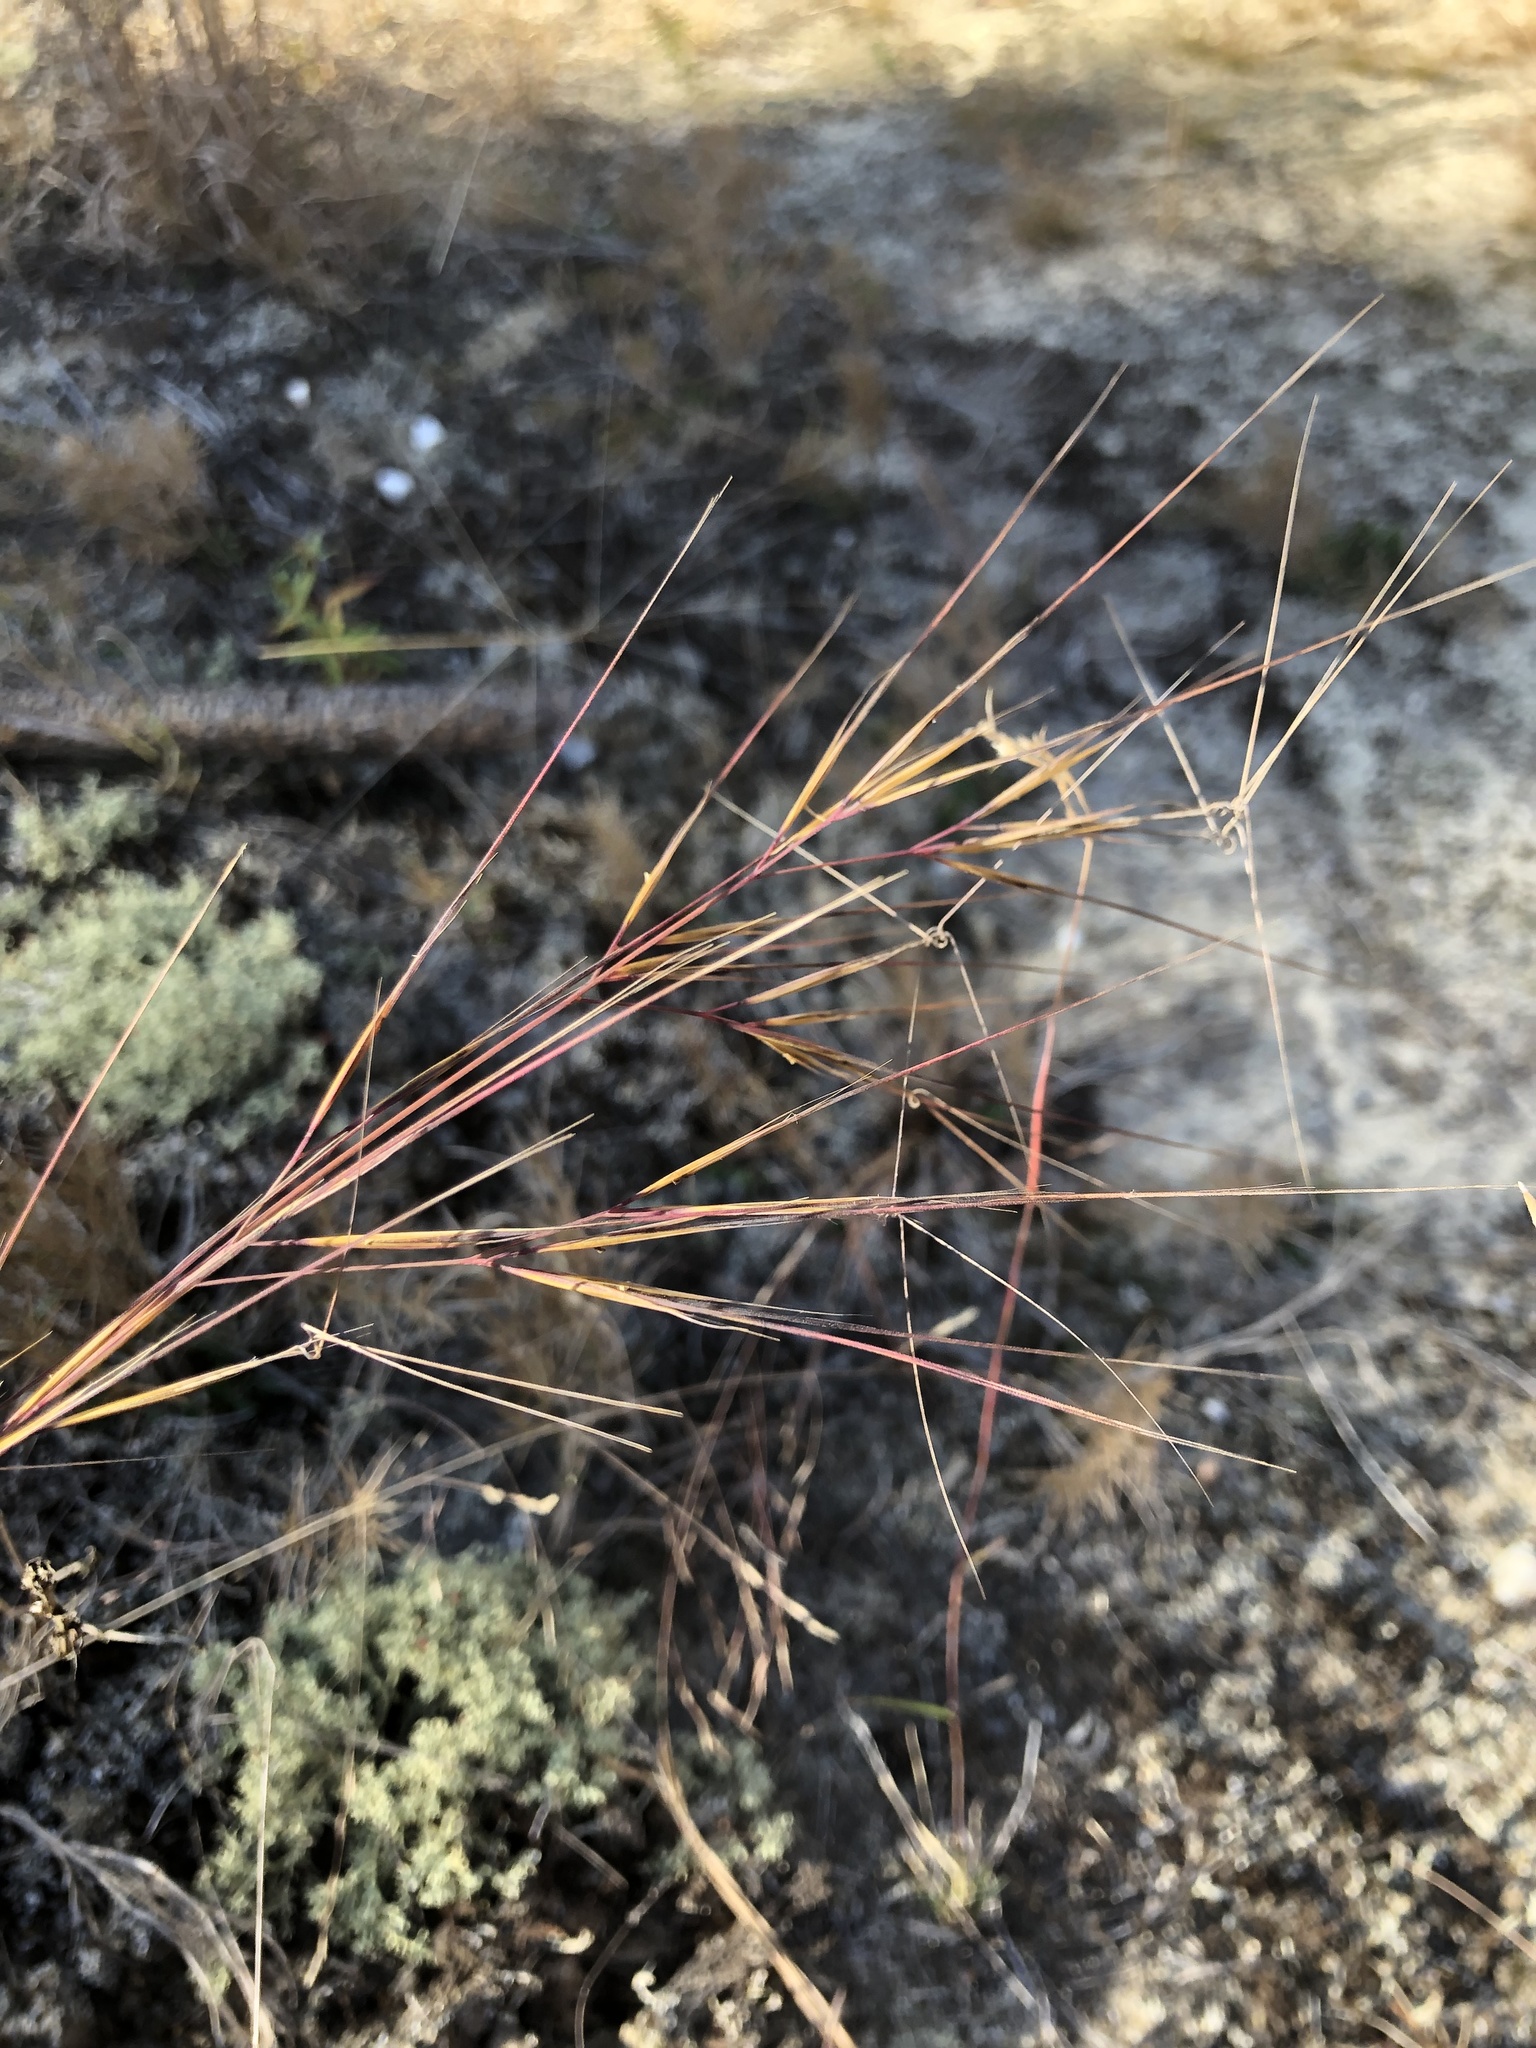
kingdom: Plantae
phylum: Tracheophyta
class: Liliopsida
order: Poales
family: Poaceae
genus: Aristida
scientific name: Aristida tuberculosa
